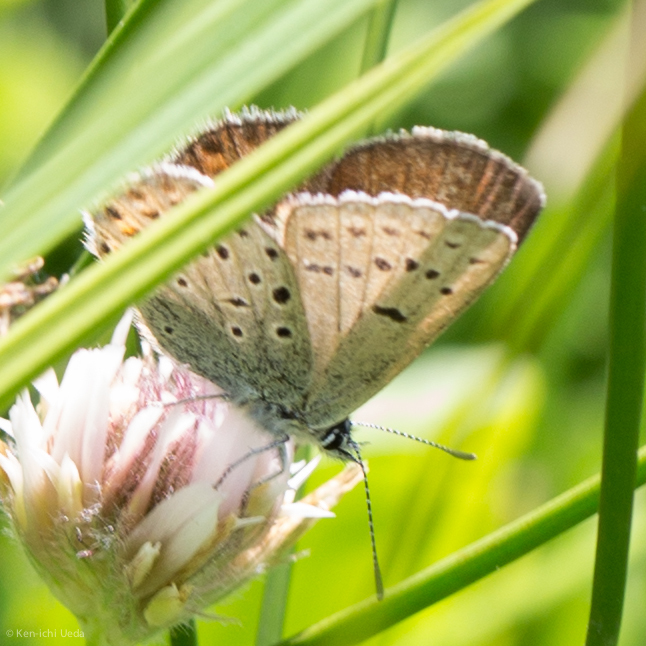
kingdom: Animalia
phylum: Arthropoda
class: Insecta
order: Lepidoptera
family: Lycaenidae
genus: Icaricia
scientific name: Icaricia saepiolus
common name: Greenish blue
